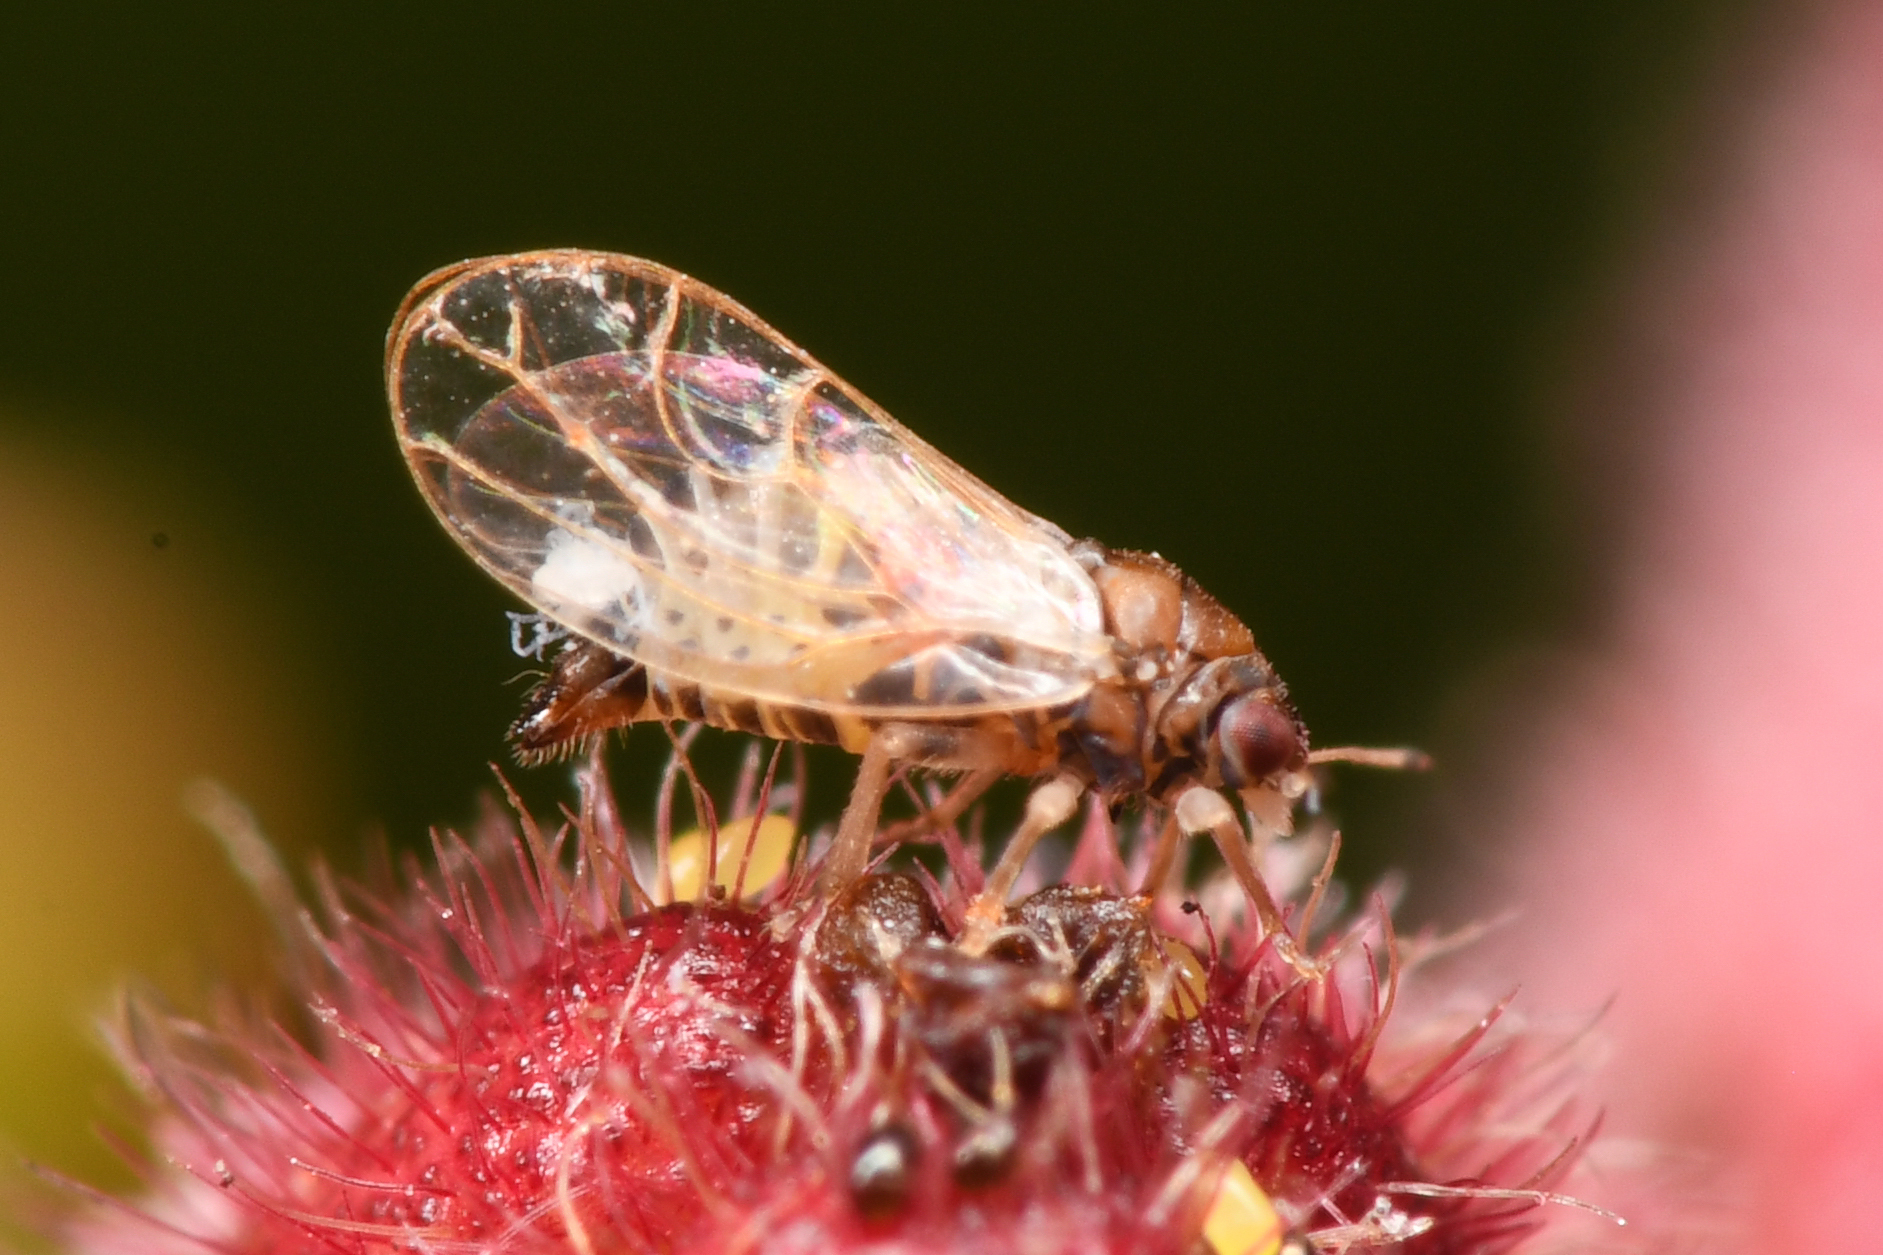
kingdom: Animalia
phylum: Arthropoda
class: Insecta
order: Hemiptera
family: Calophyidae
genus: Calophya
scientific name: Calophya californica
